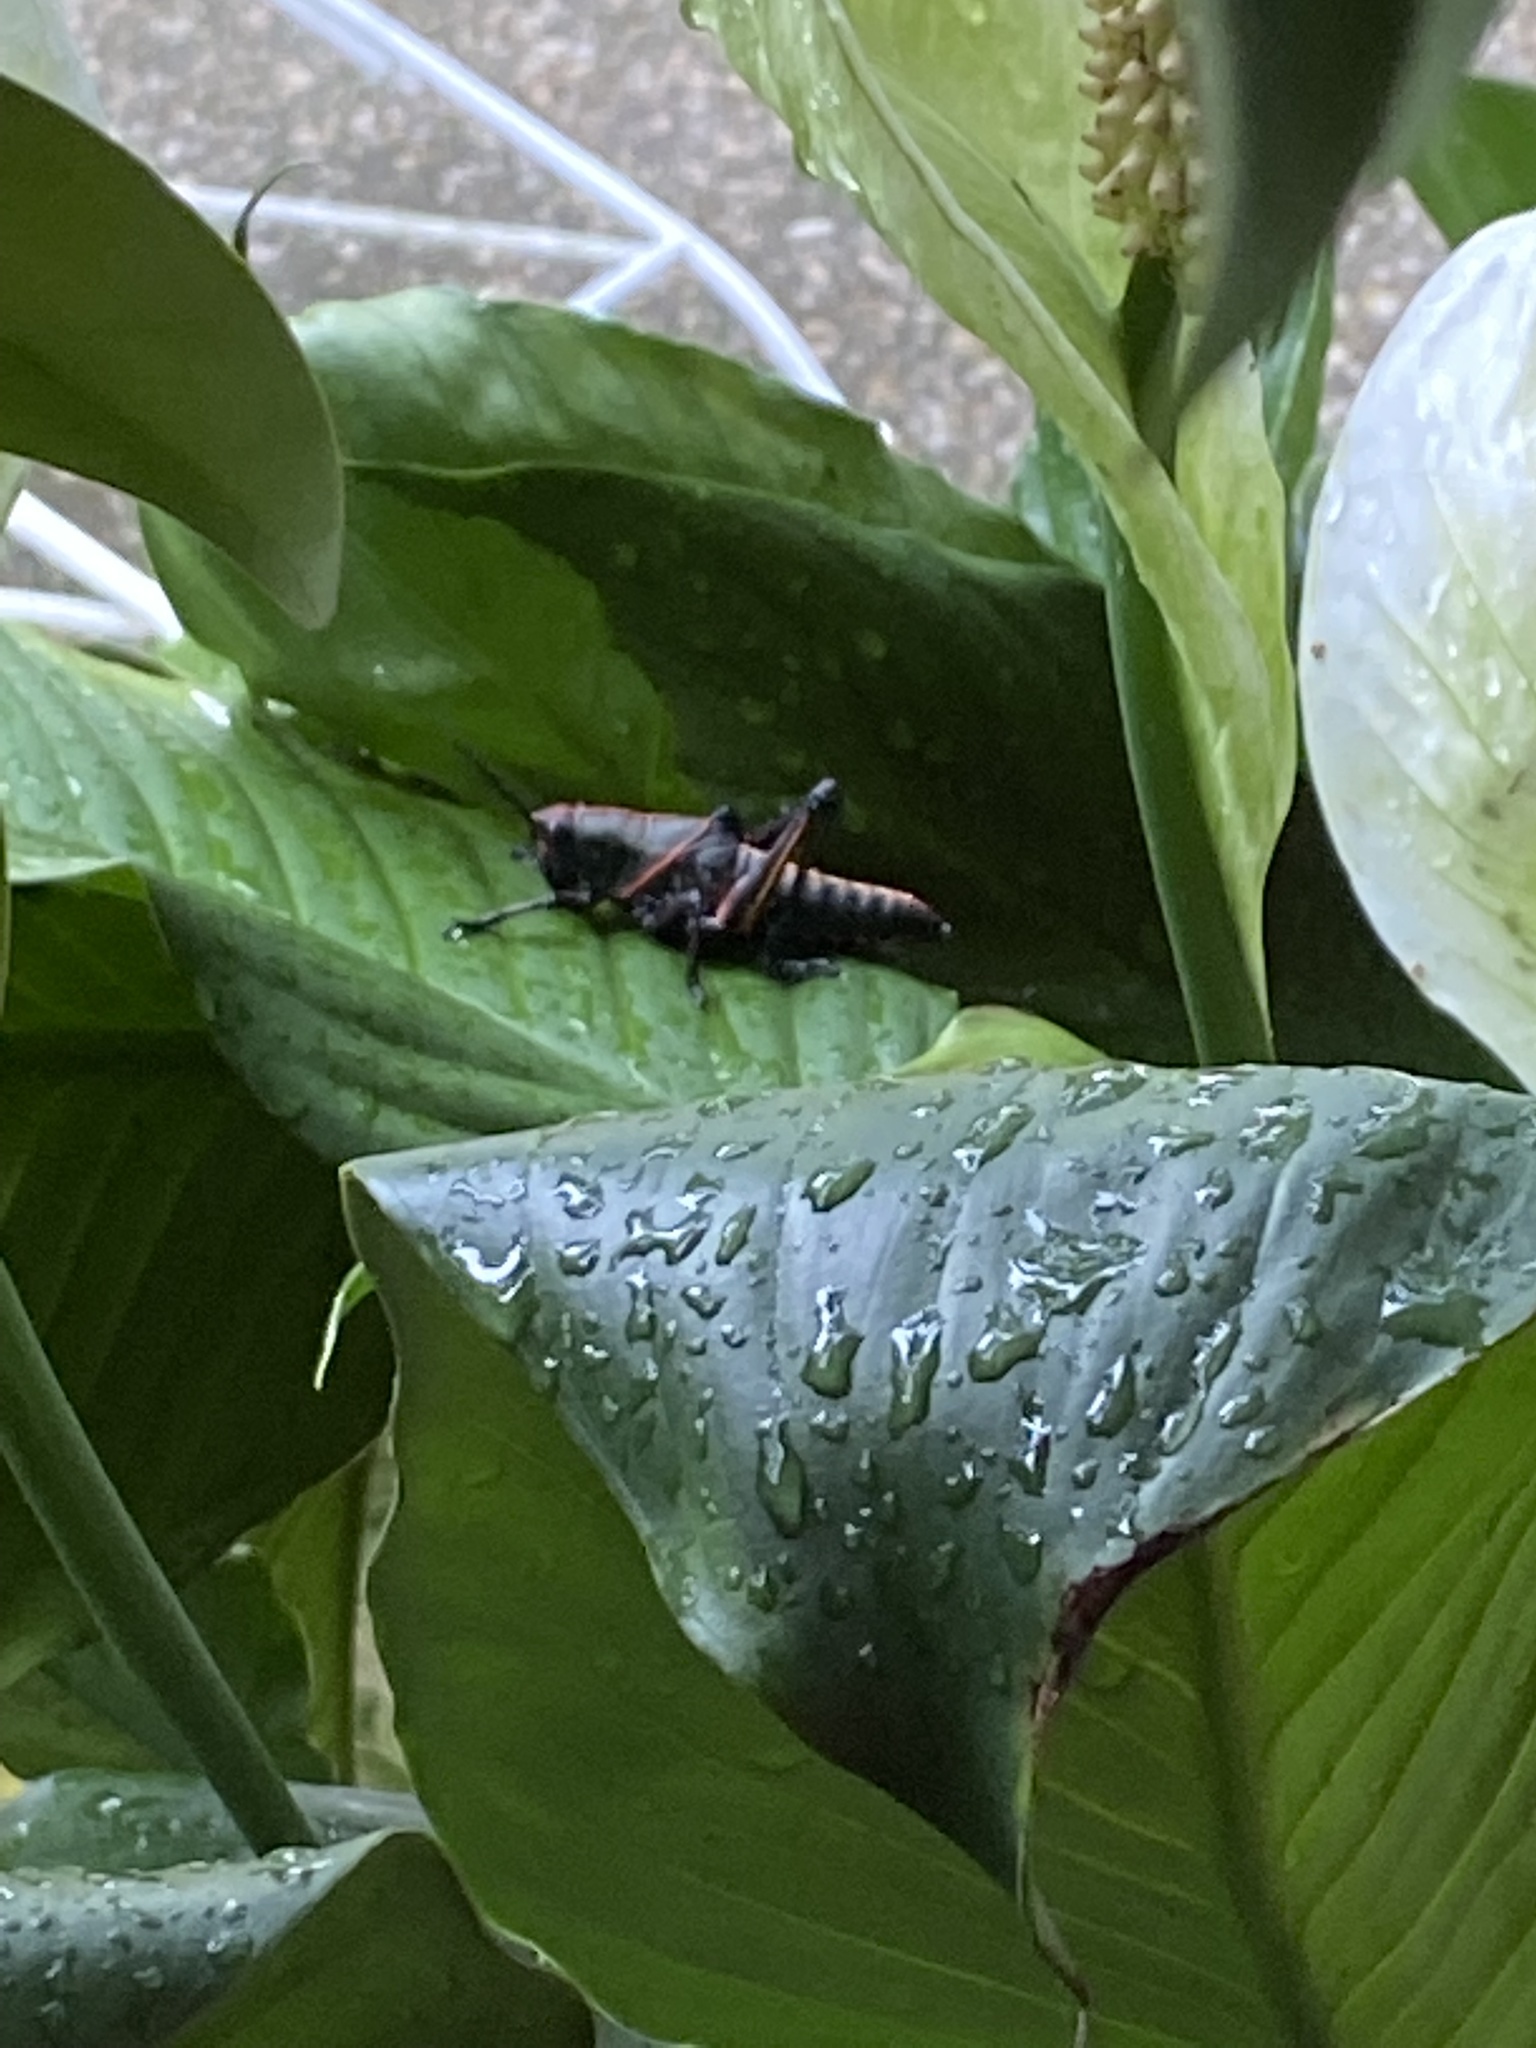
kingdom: Animalia
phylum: Arthropoda
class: Insecta
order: Orthoptera
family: Romaleidae
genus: Romalea
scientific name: Romalea microptera
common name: Eastern lubber grasshopper
